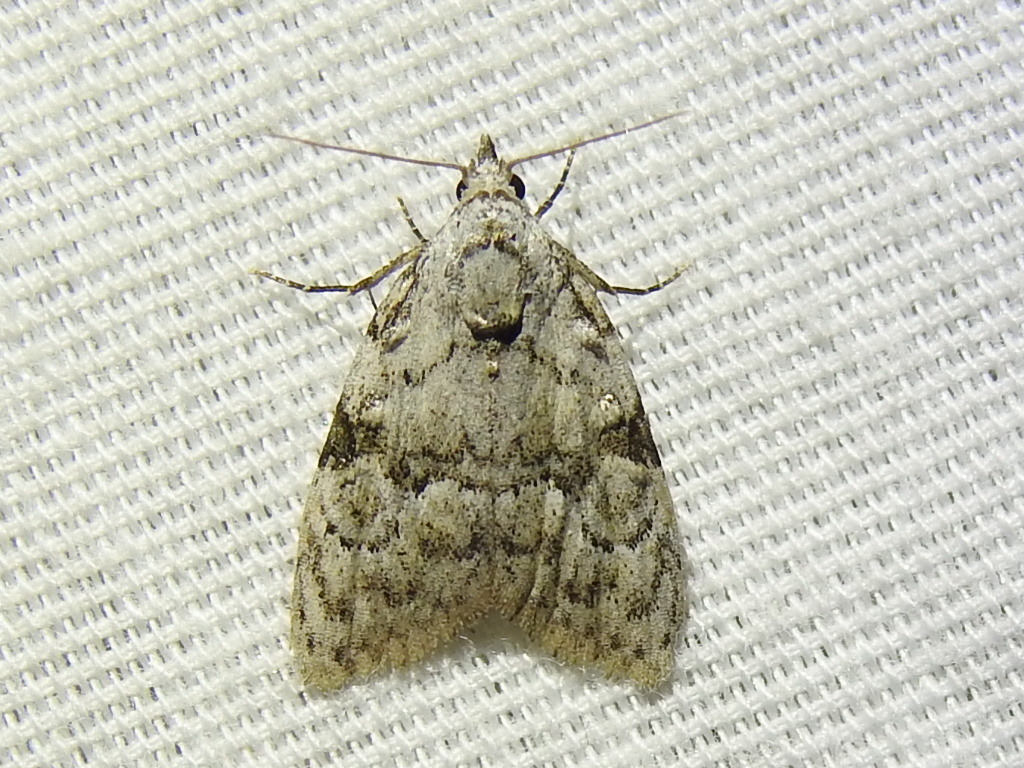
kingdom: Animalia
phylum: Arthropoda
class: Insecta
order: Lepidoptera
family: Nolidae
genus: Meganola
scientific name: Meganola minuscula
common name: Confused meganola moth
